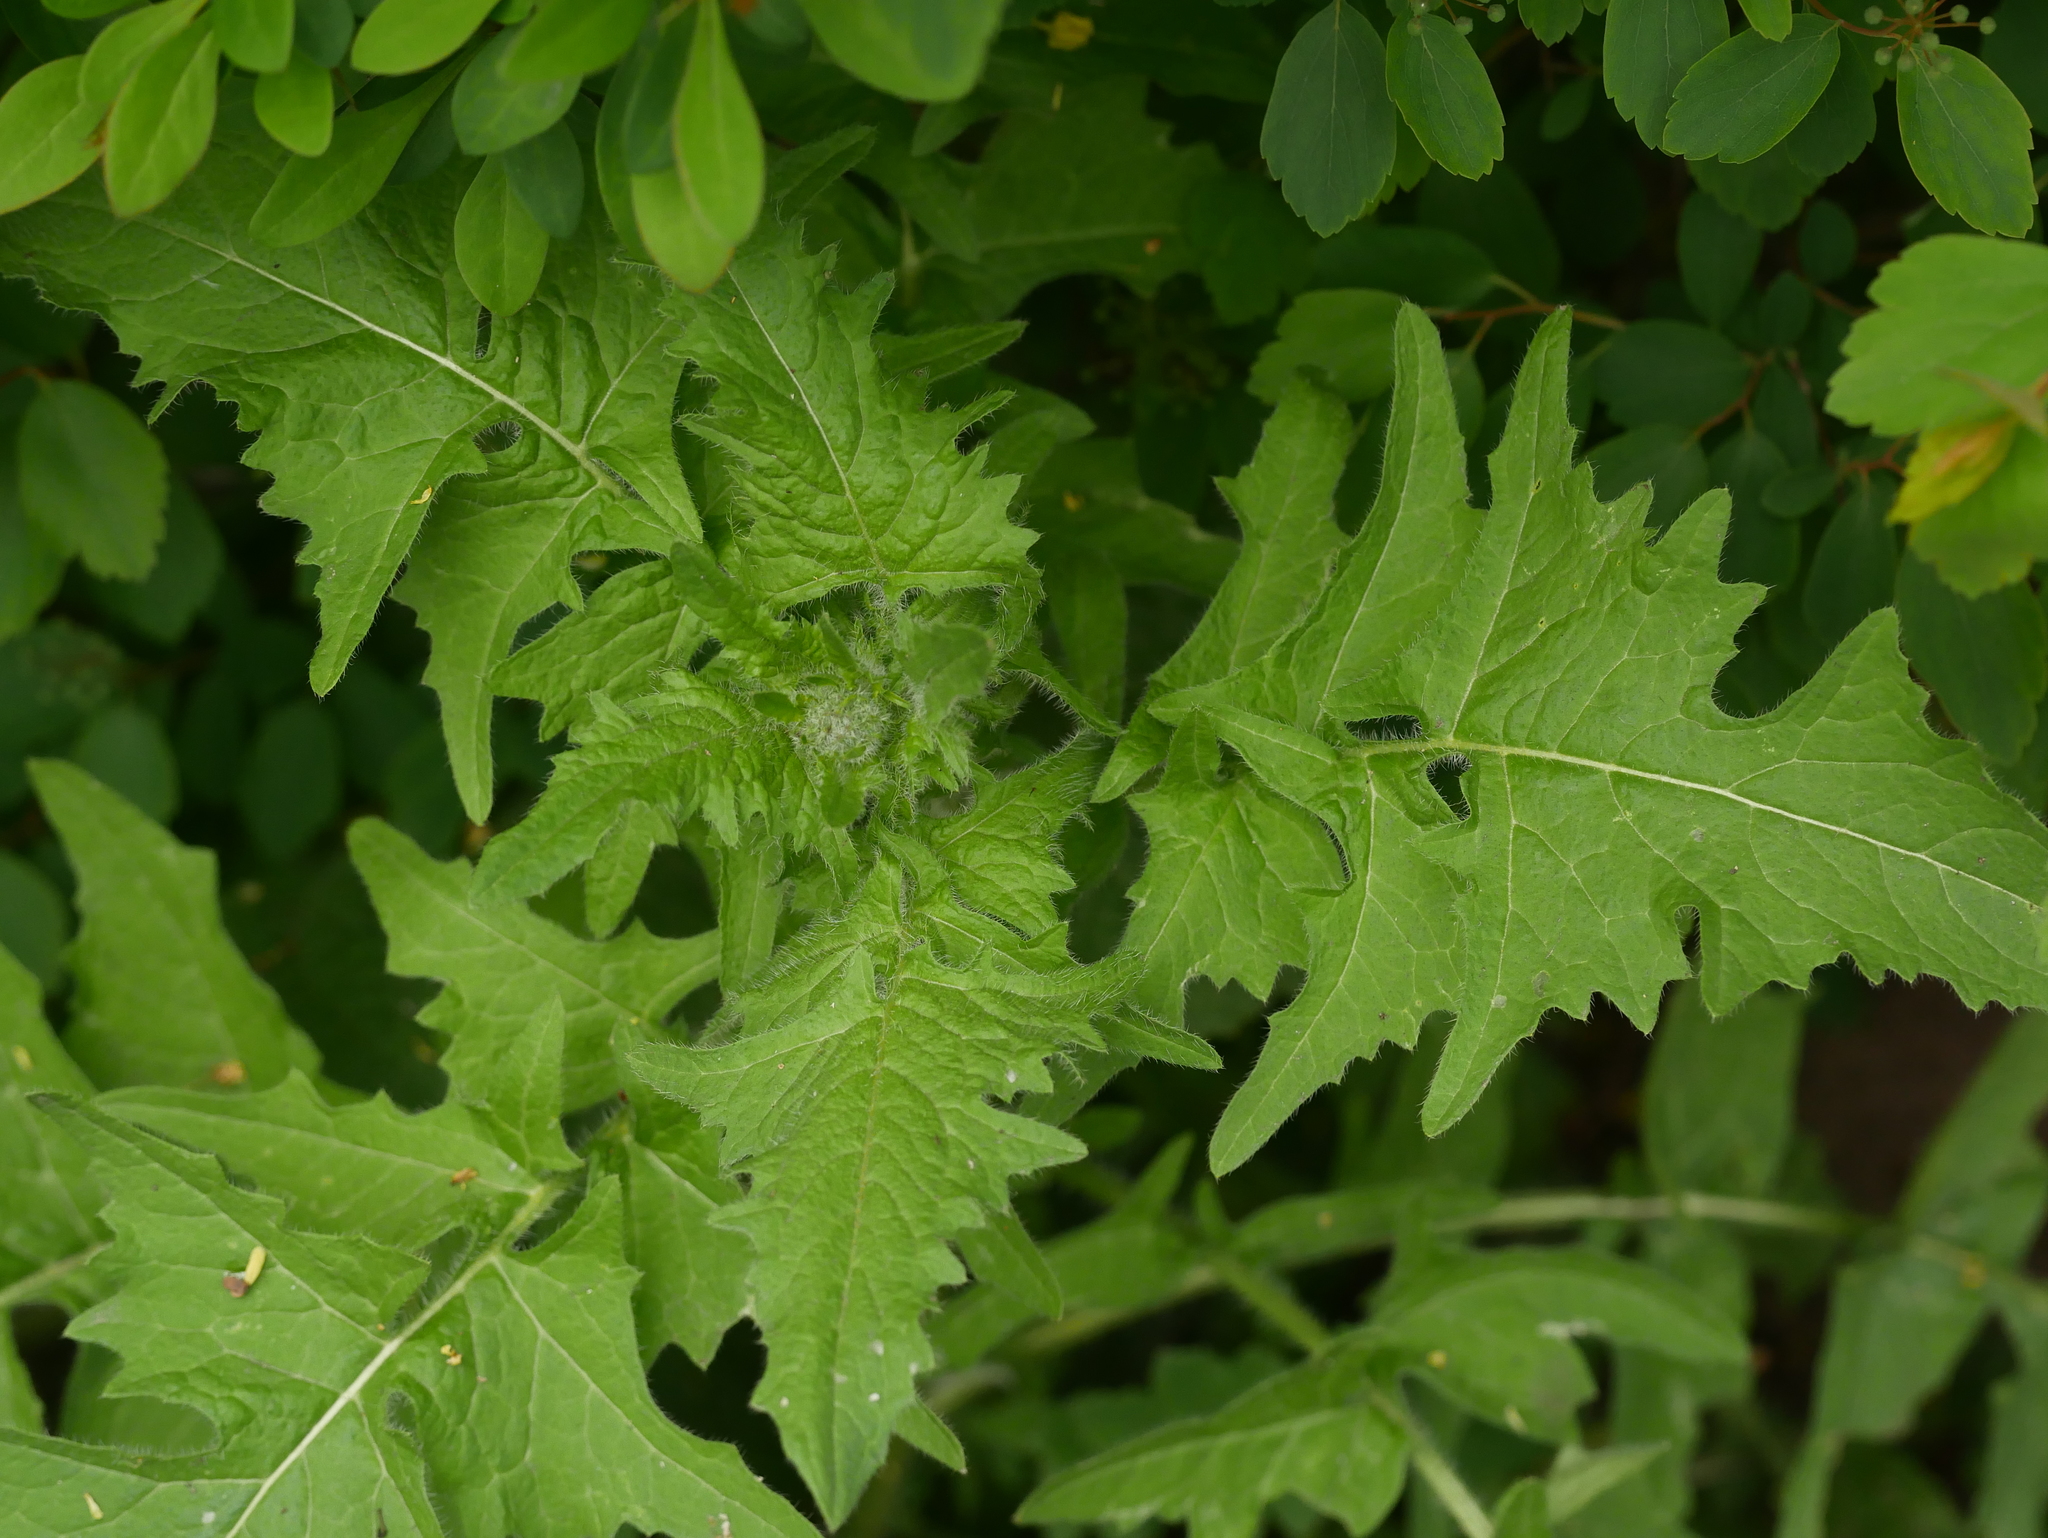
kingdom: Plantae
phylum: Tracheophyta
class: Magnoliopsida
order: Brassicales
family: Brassicaceae
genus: Sisymbrium
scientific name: Sisymbrium loeselii
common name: False london-rocket
